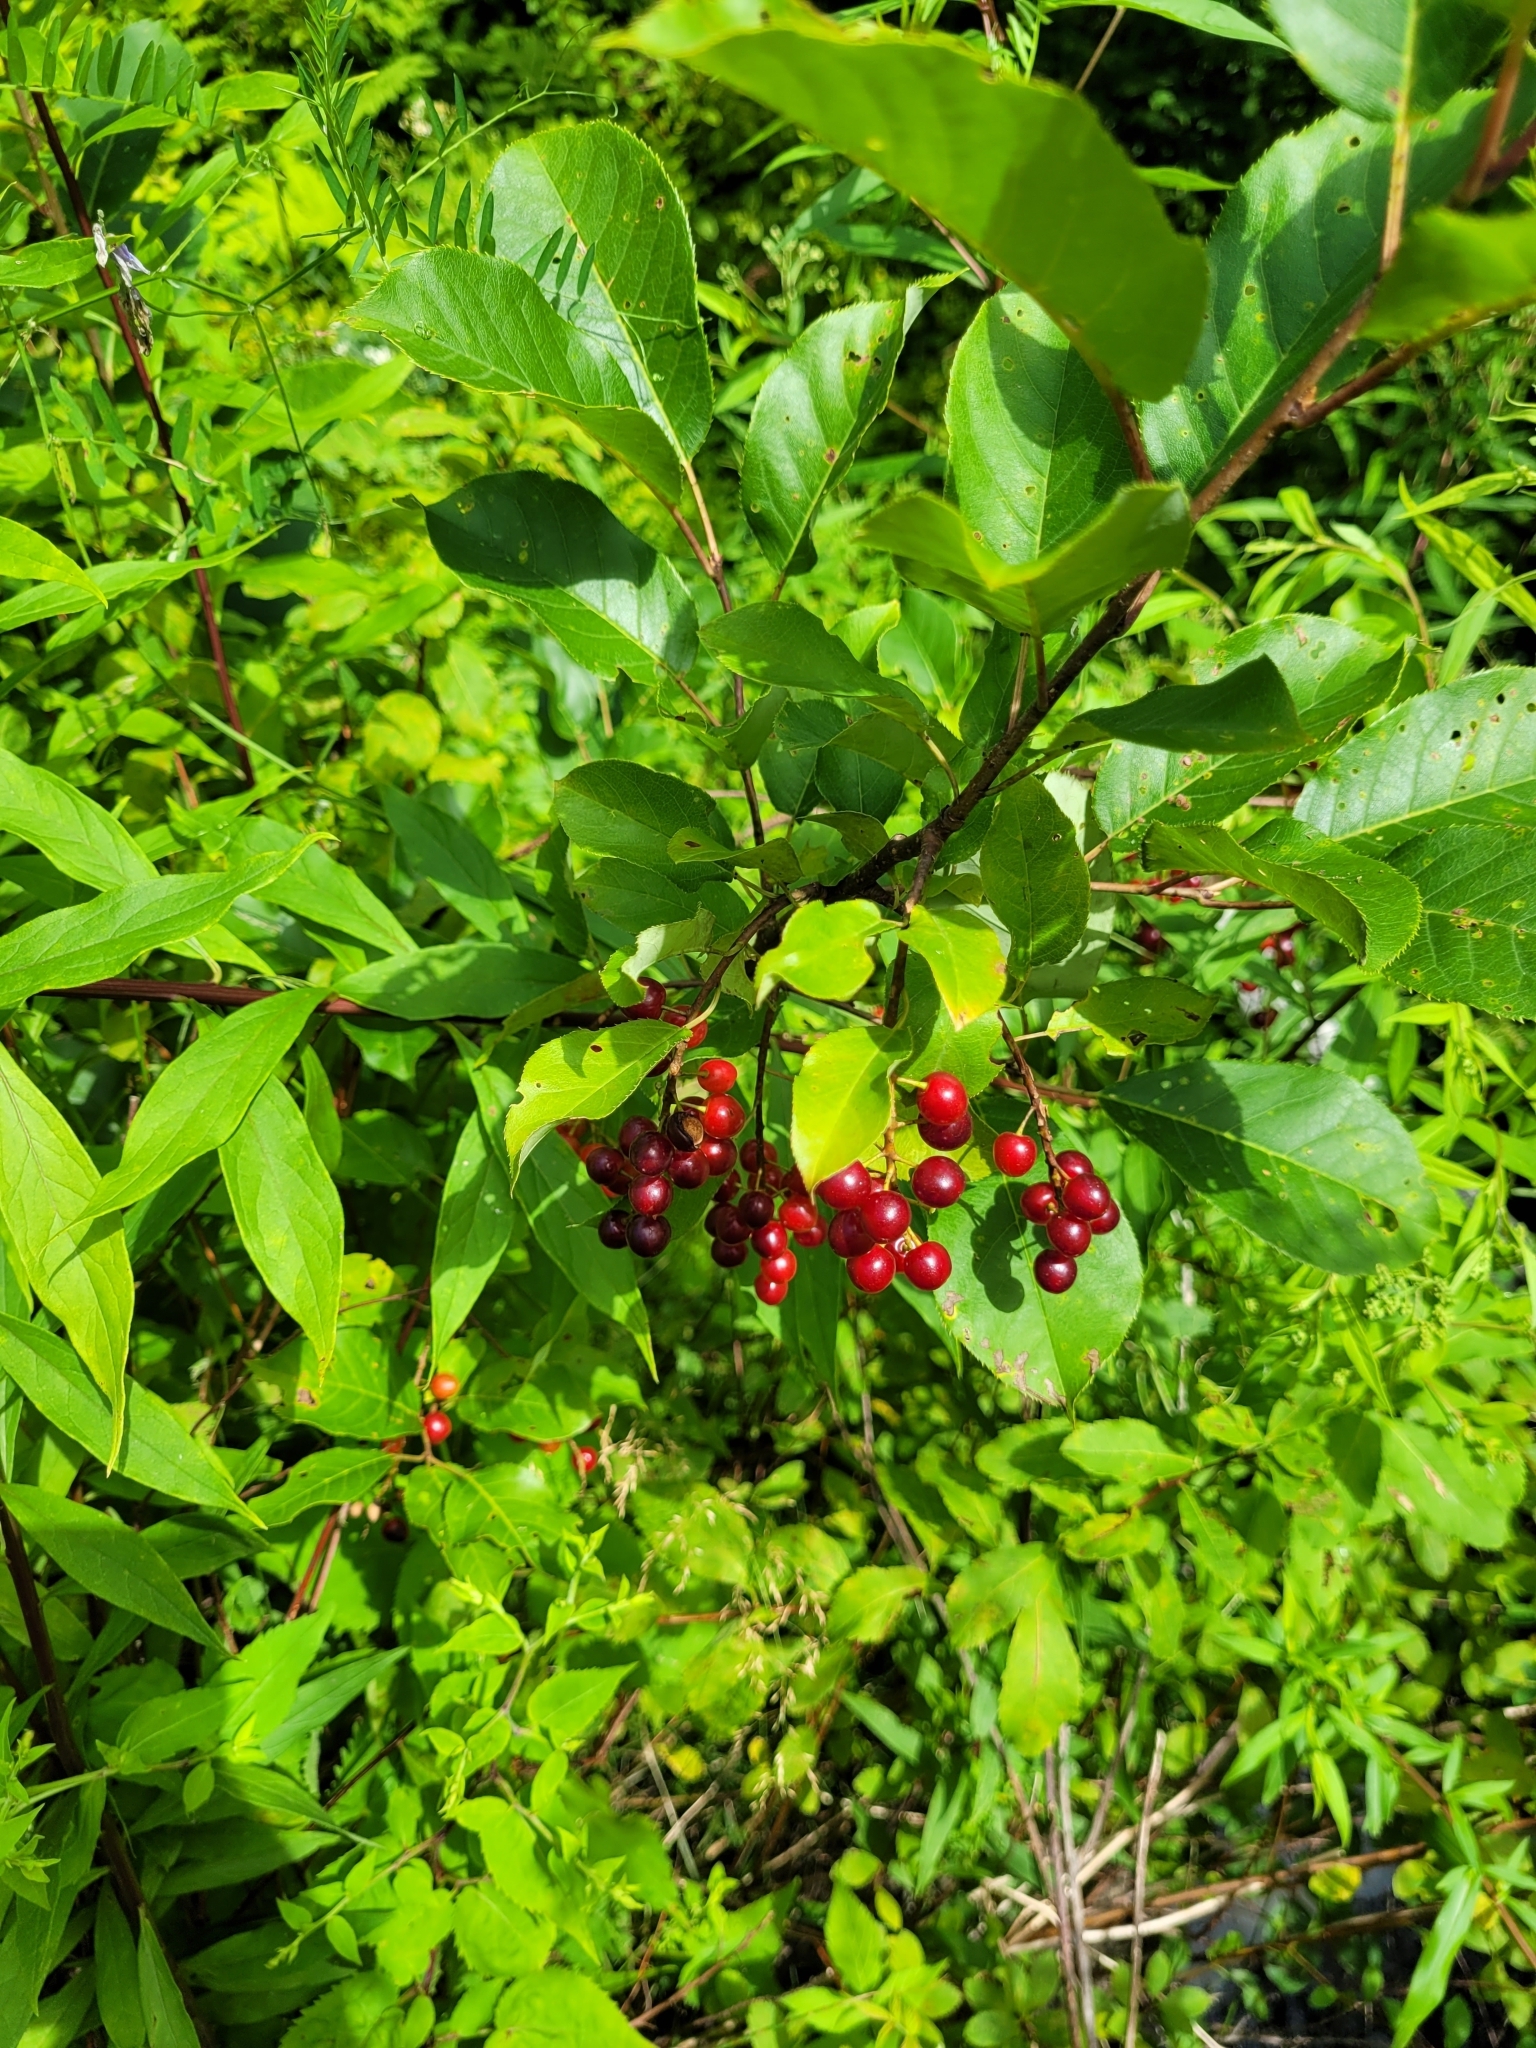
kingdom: Plantae
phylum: Tracheophyta
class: Magnoliopsida
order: Rosales
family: Rosaceae
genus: Prunus
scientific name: Prunus virginiana
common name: Chokecherry
